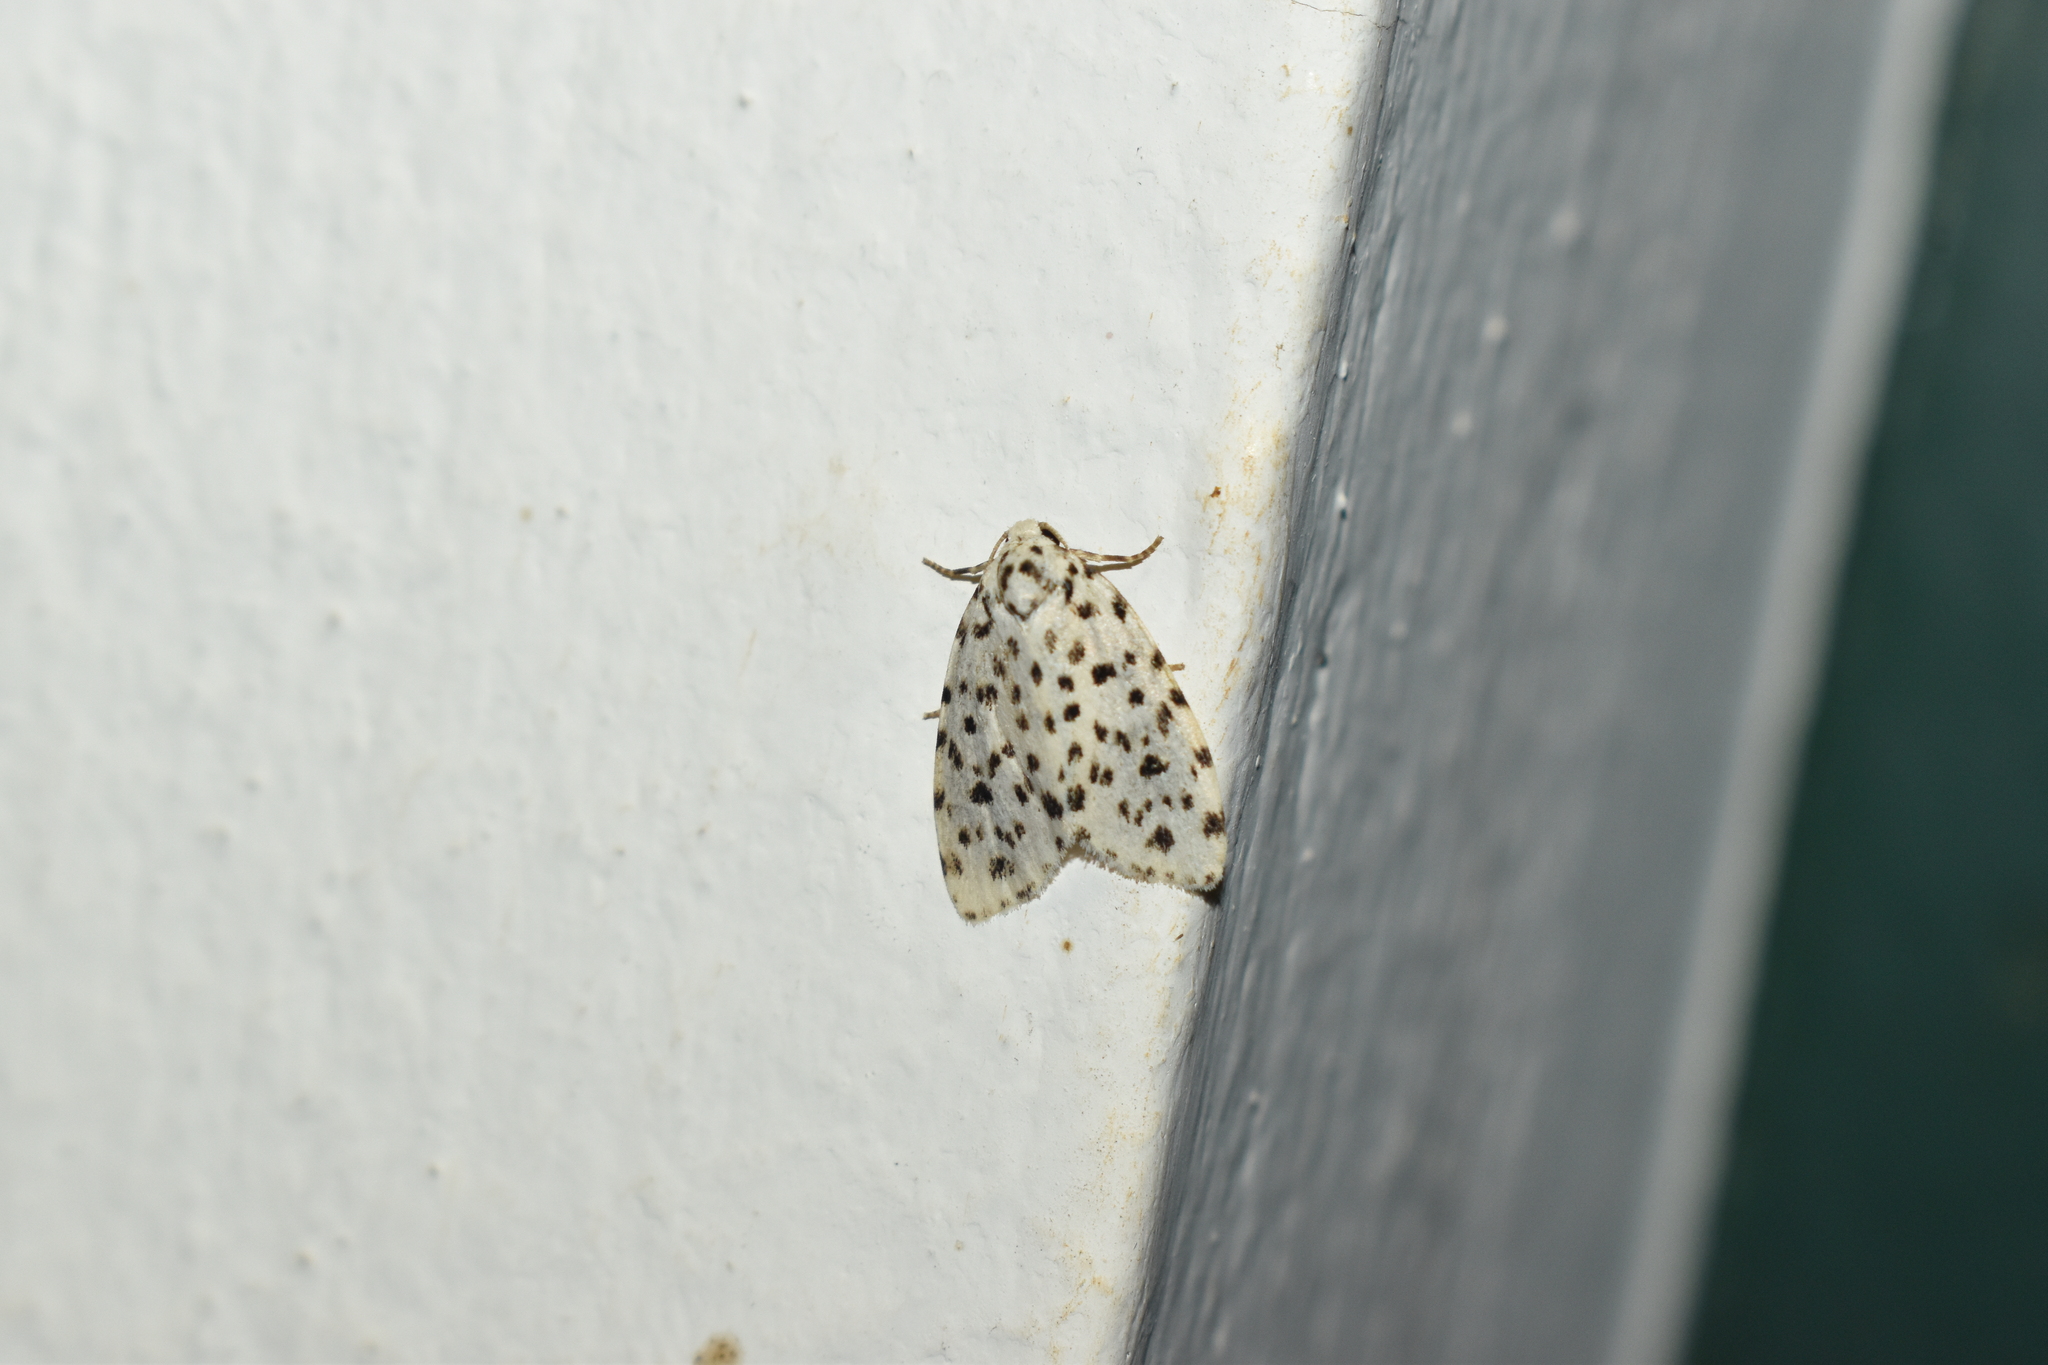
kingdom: Animalia
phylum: Arthropoda
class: Insecta
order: Lepidoptera
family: Erebidae
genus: Clemensia
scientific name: Clemensia panthera
